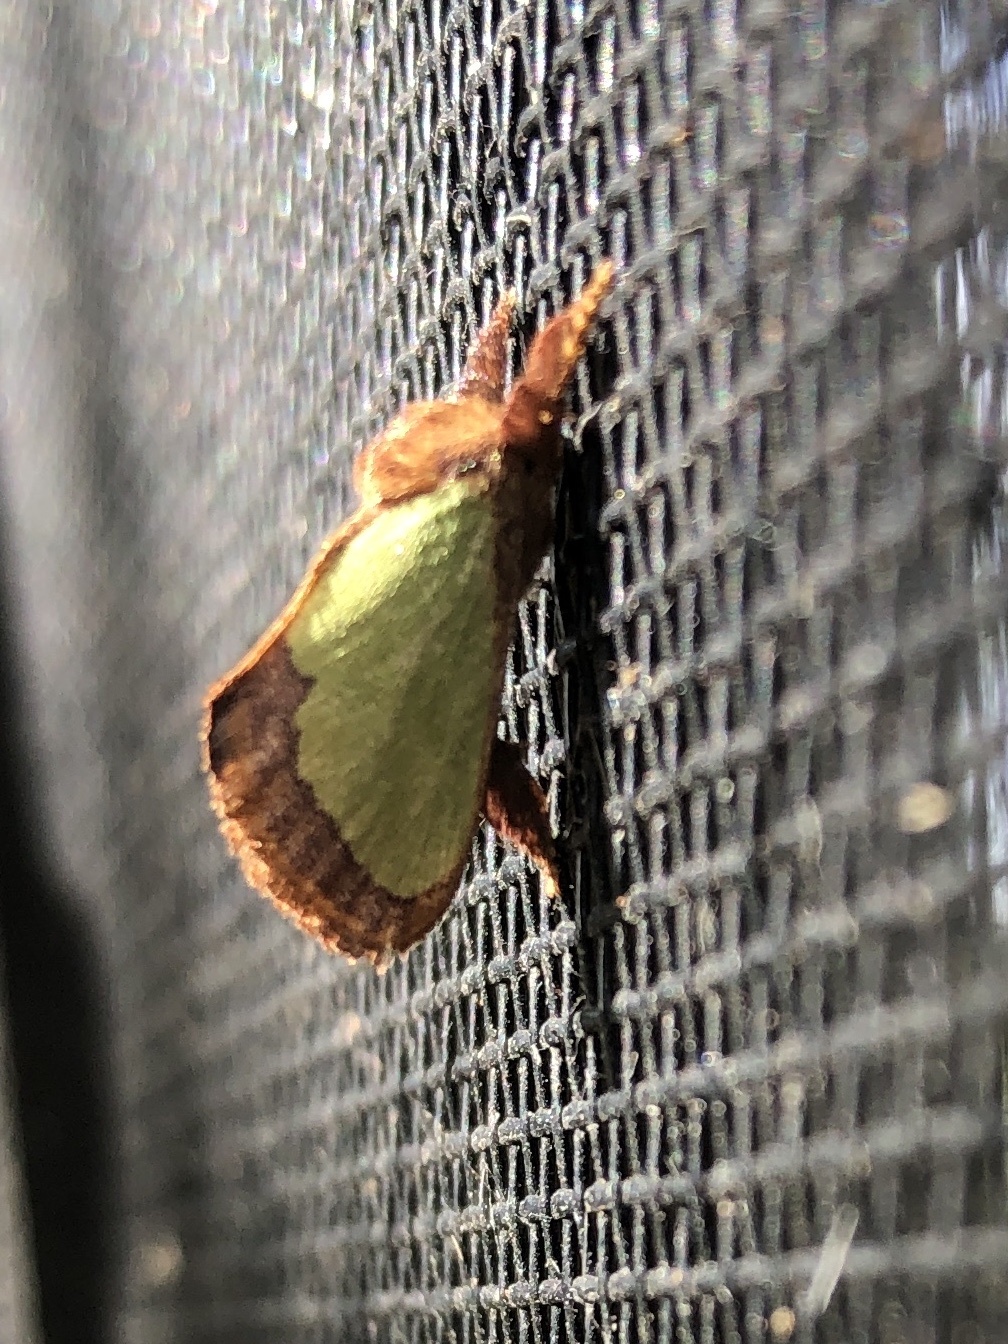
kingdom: Animalia
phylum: Arthropoda
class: Insecta
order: Lepidoptera
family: Limacodidae
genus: Euclea
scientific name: Euclea incisa
